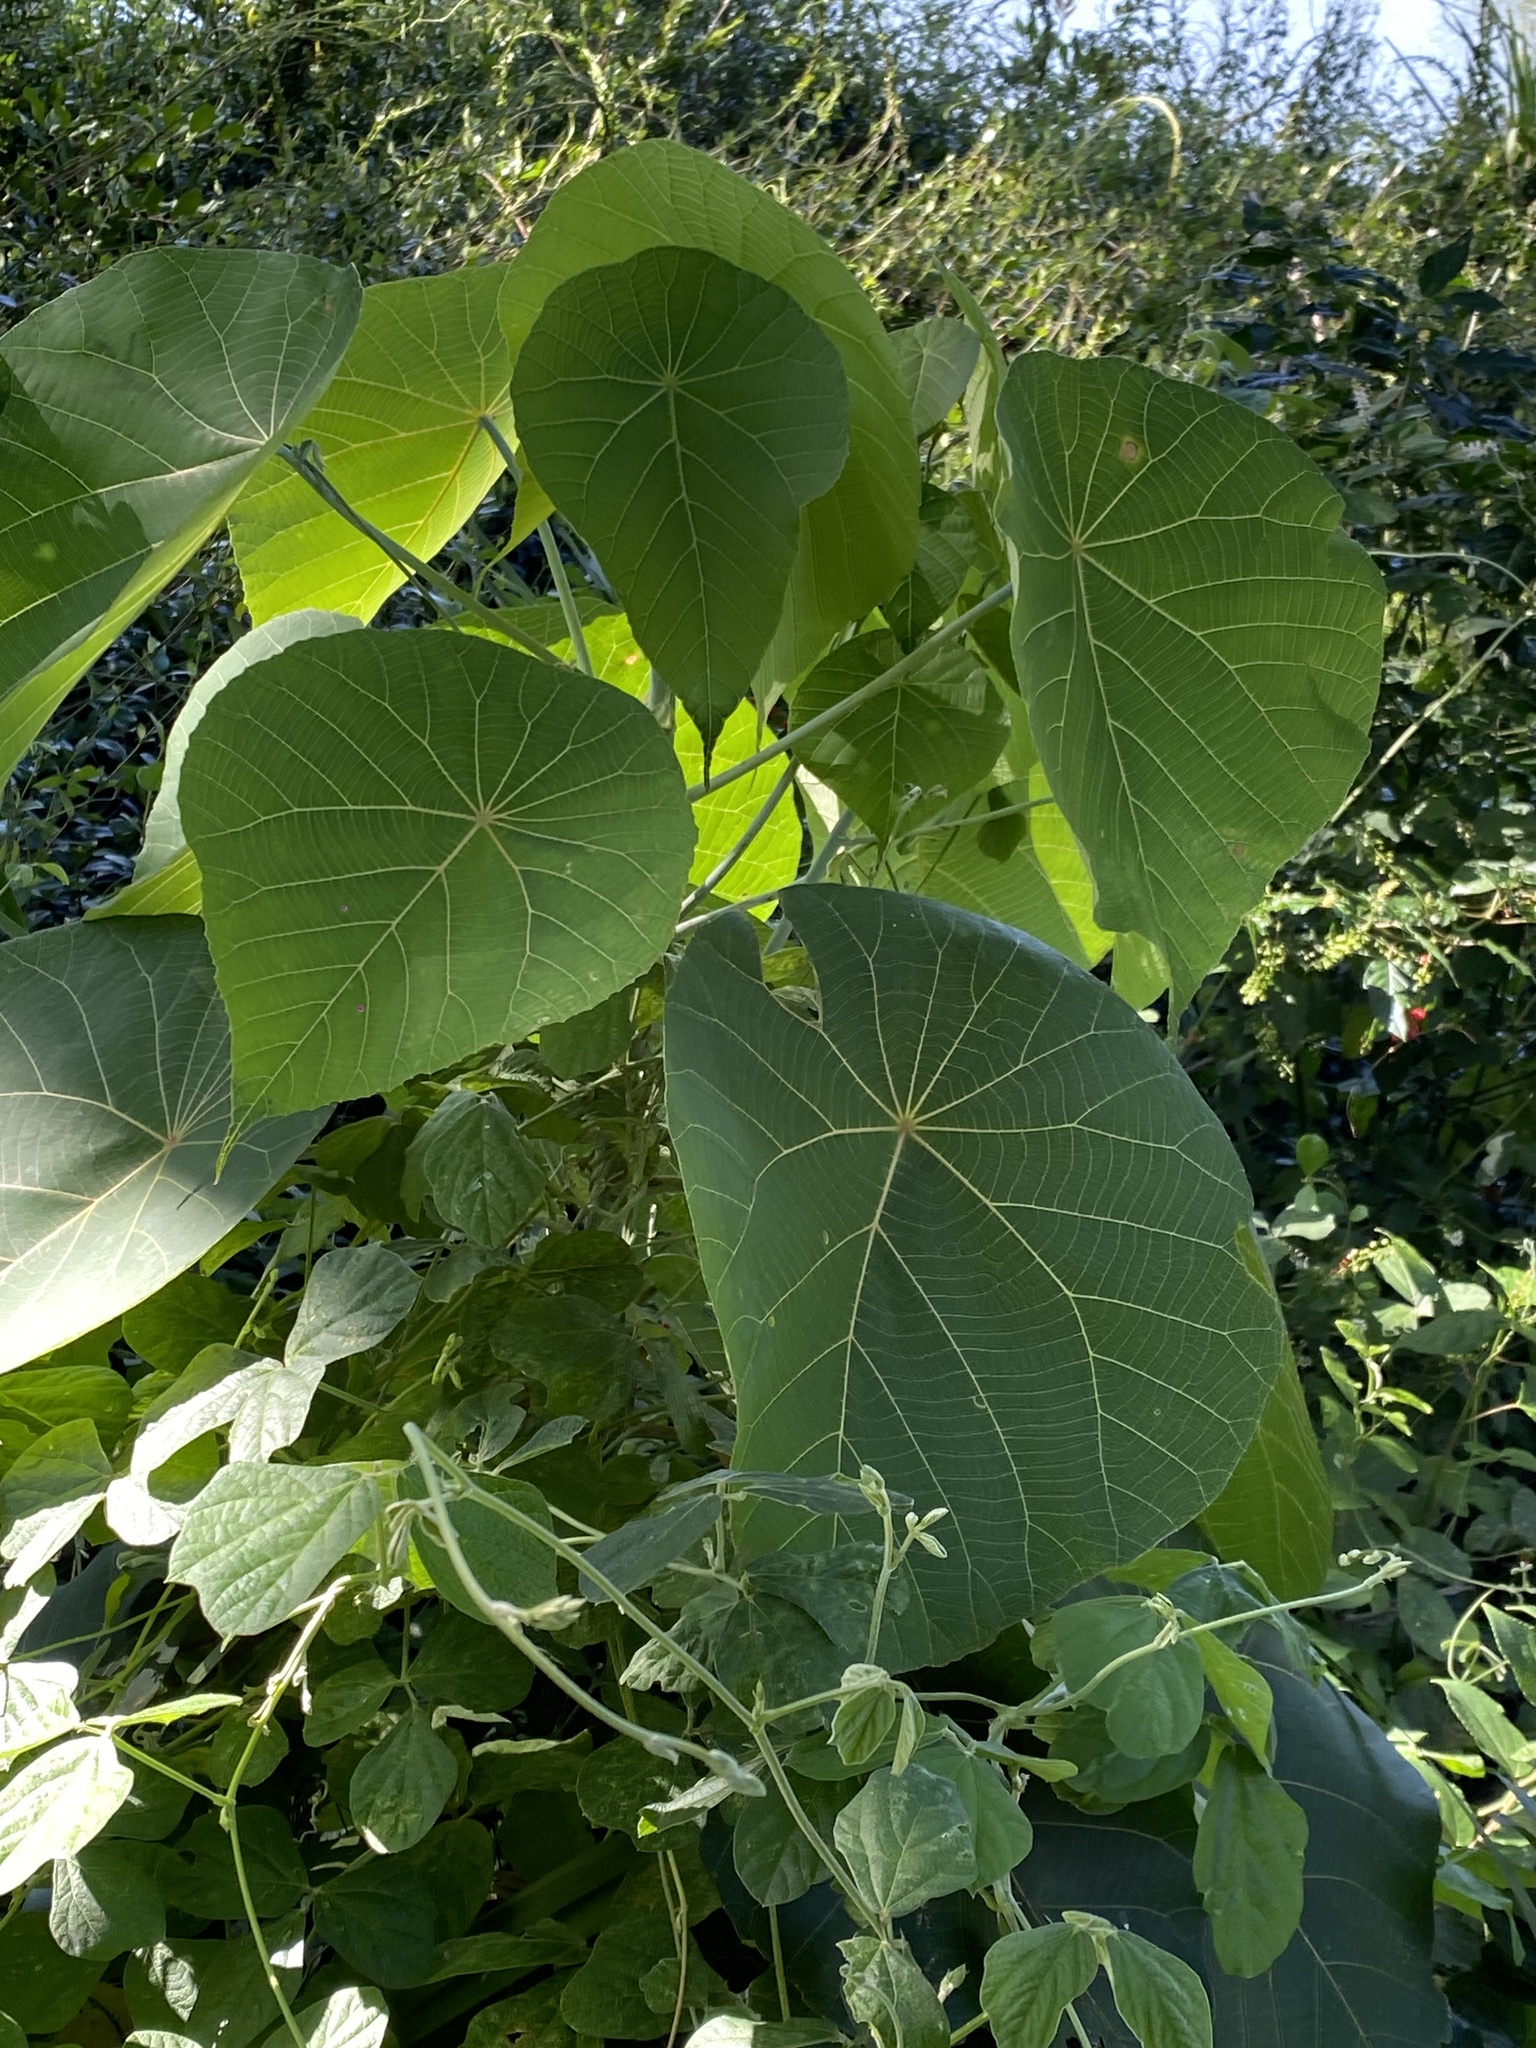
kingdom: Plantae
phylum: Tracheophyta
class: Magnoliopsida
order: Malpighiales
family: Euphorbiaceae
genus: Macaranga
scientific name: Macaranga tanarius
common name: Parasol leaf tree
